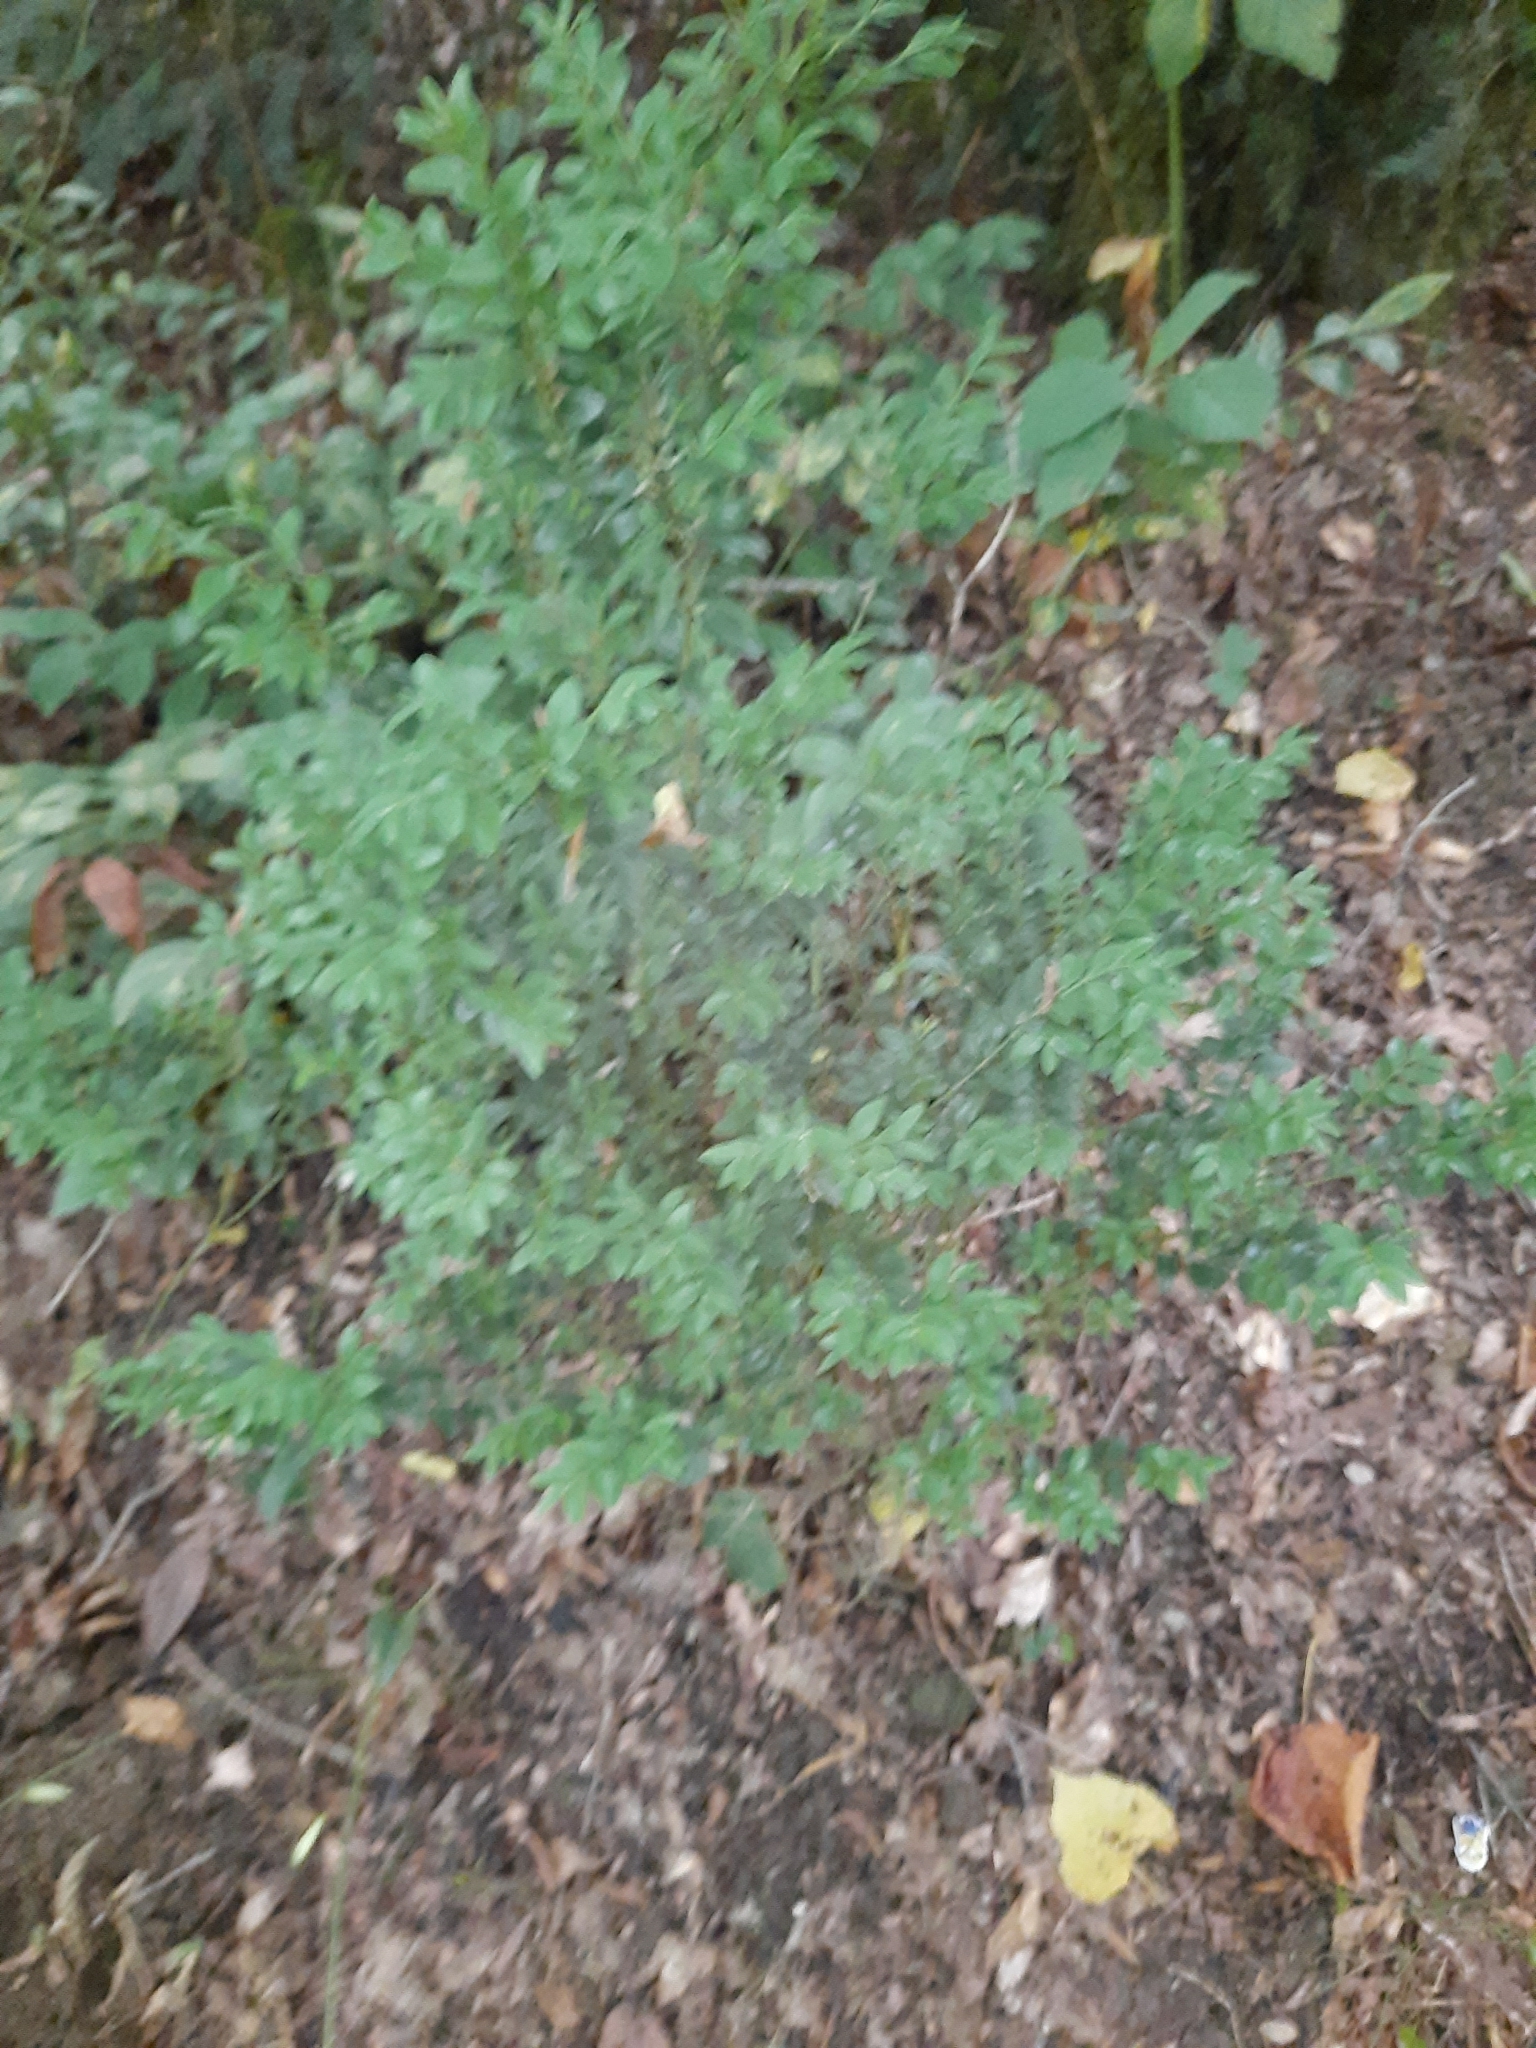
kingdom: Plantae
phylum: Tracheophyta
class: Magnoliopsida
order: Buxales
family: Buxaceae
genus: Buxus
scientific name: Buxus sempervirens
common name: Box
